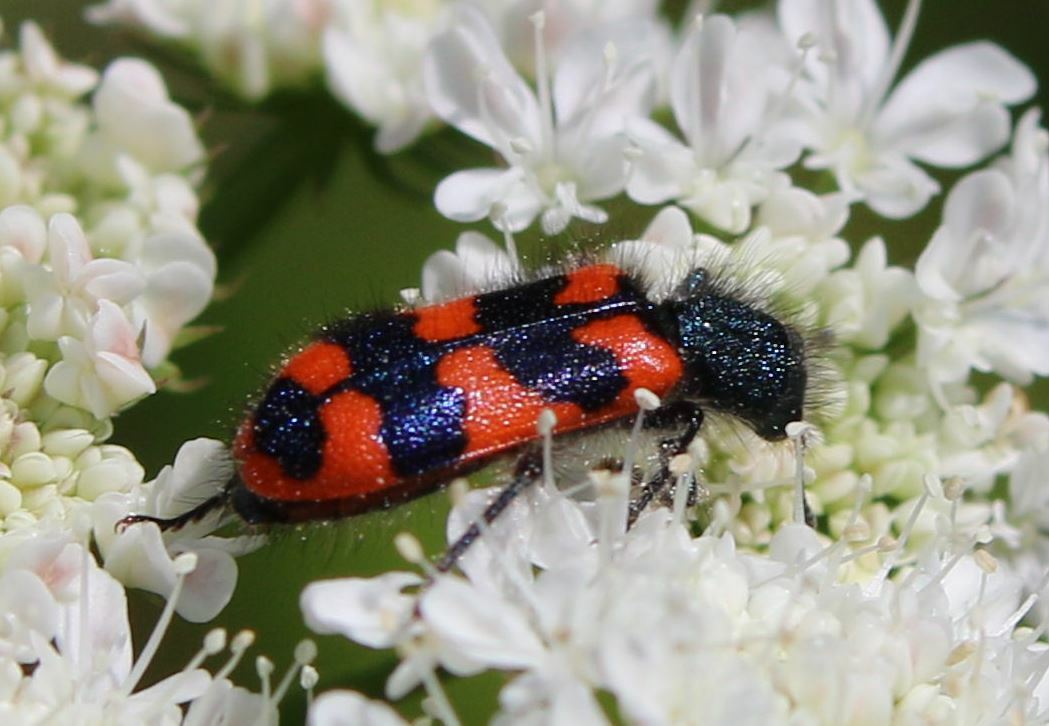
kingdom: Animalia
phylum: Arthropoda
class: Insecta
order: Coleoptera
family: Cleridae
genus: Trichodes
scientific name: Trichodes alvearius
